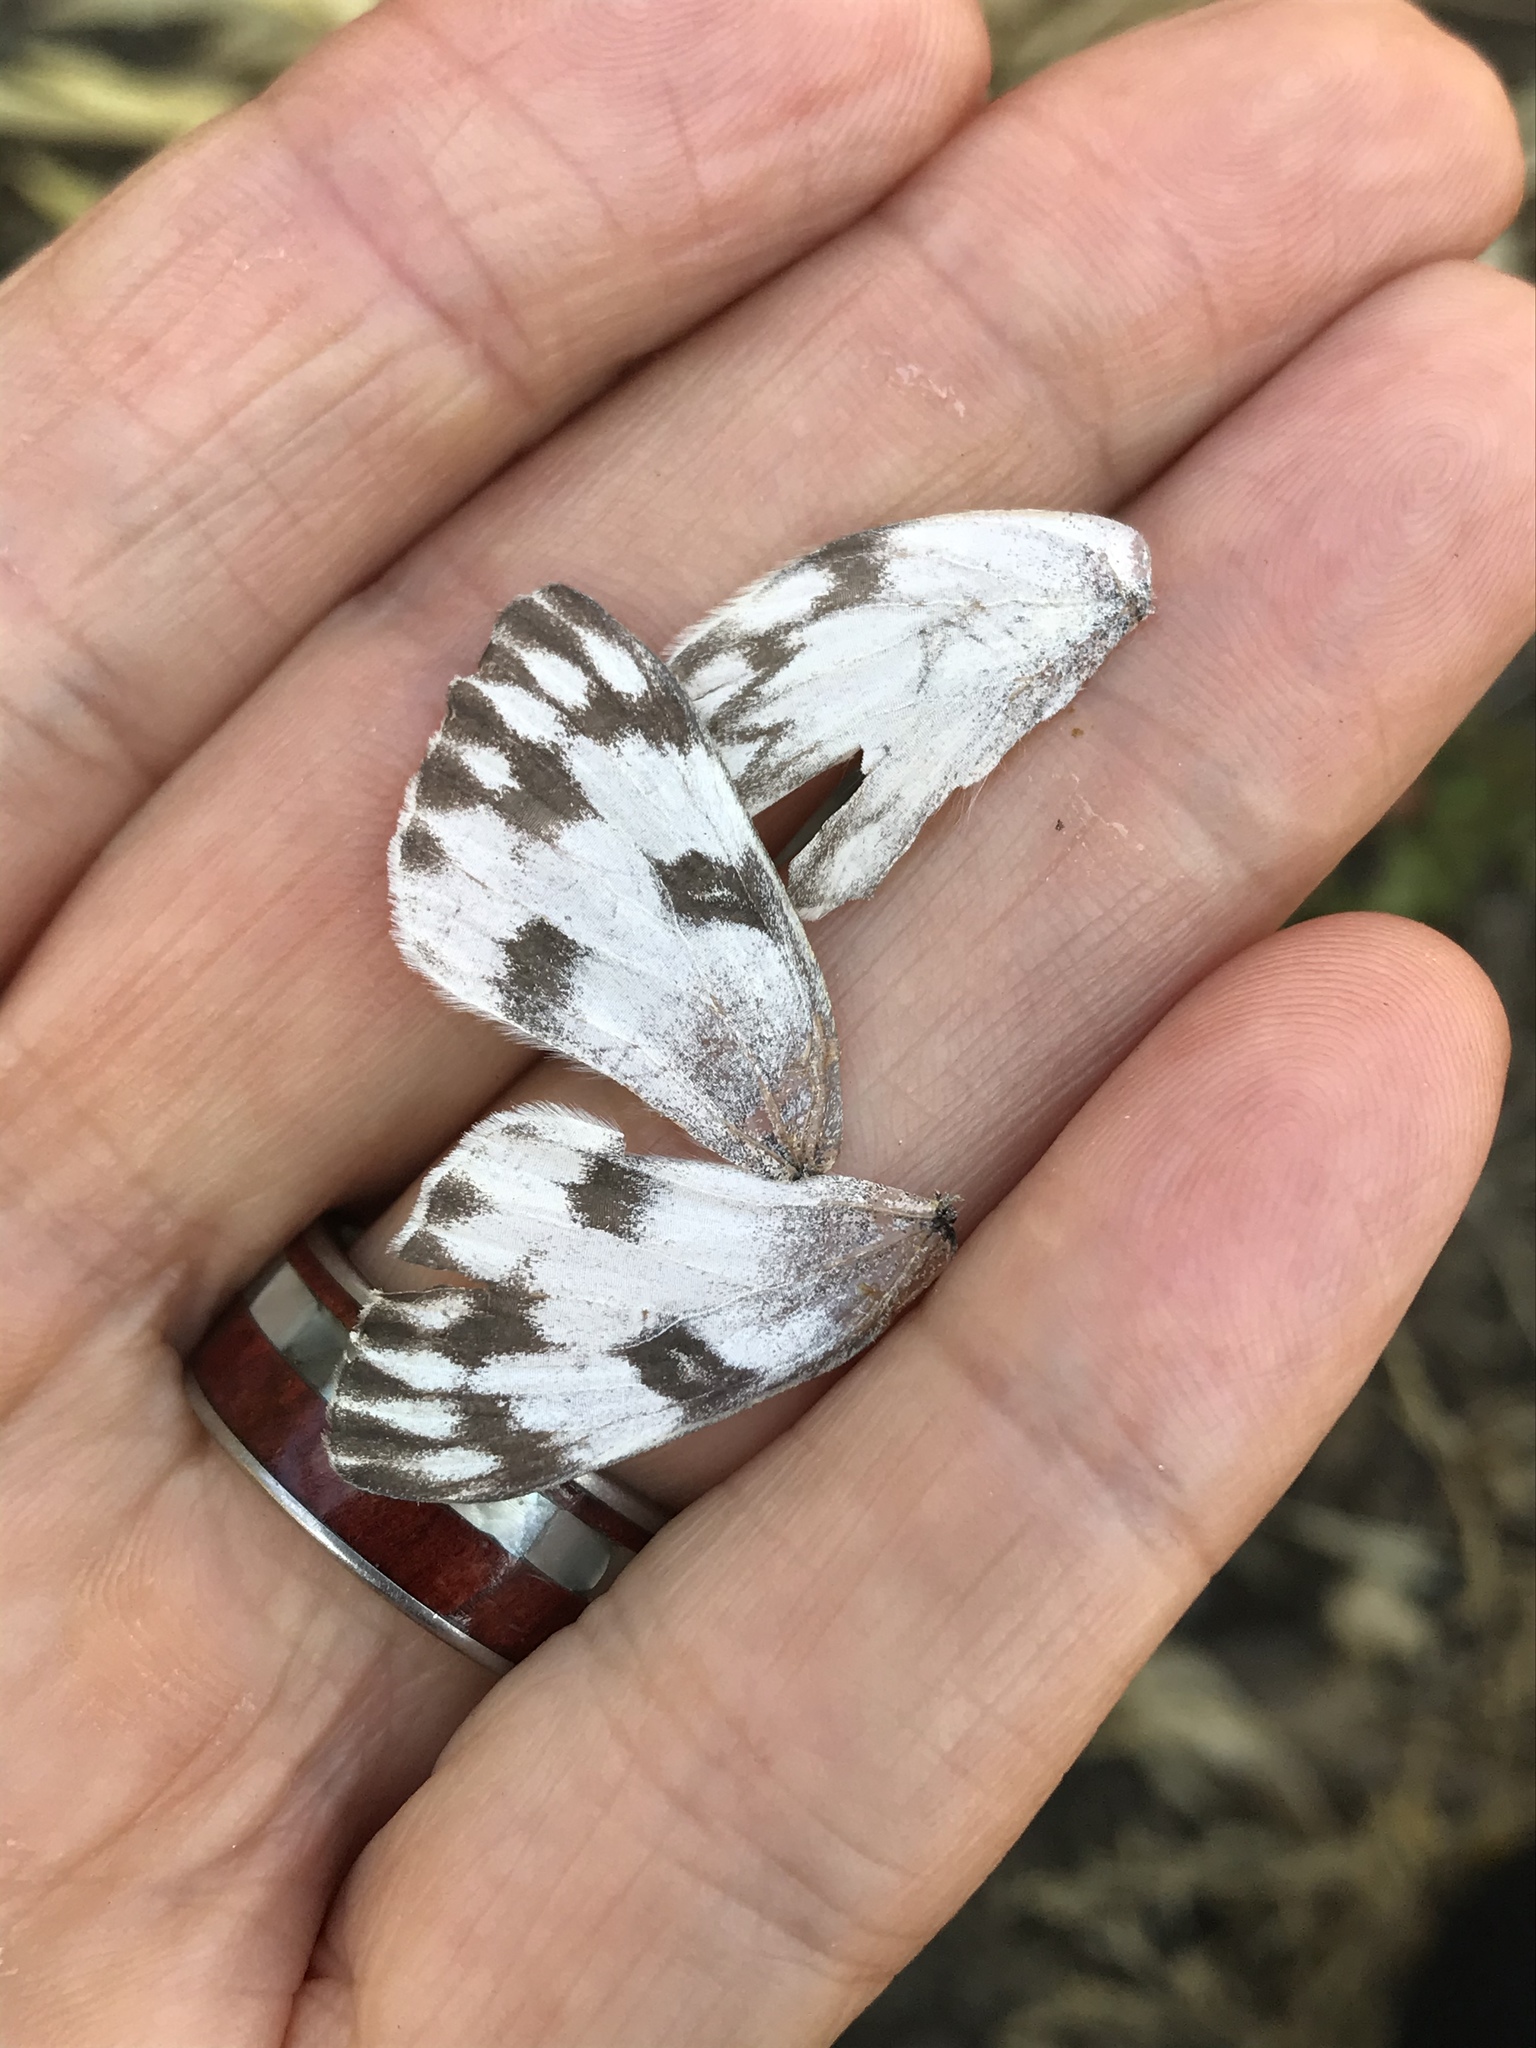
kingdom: Animalia
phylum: Arthropoda
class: Insecta
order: Lepidoptera
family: Pieridae
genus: Pontia
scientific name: Pontia protodice
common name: Checkered white
